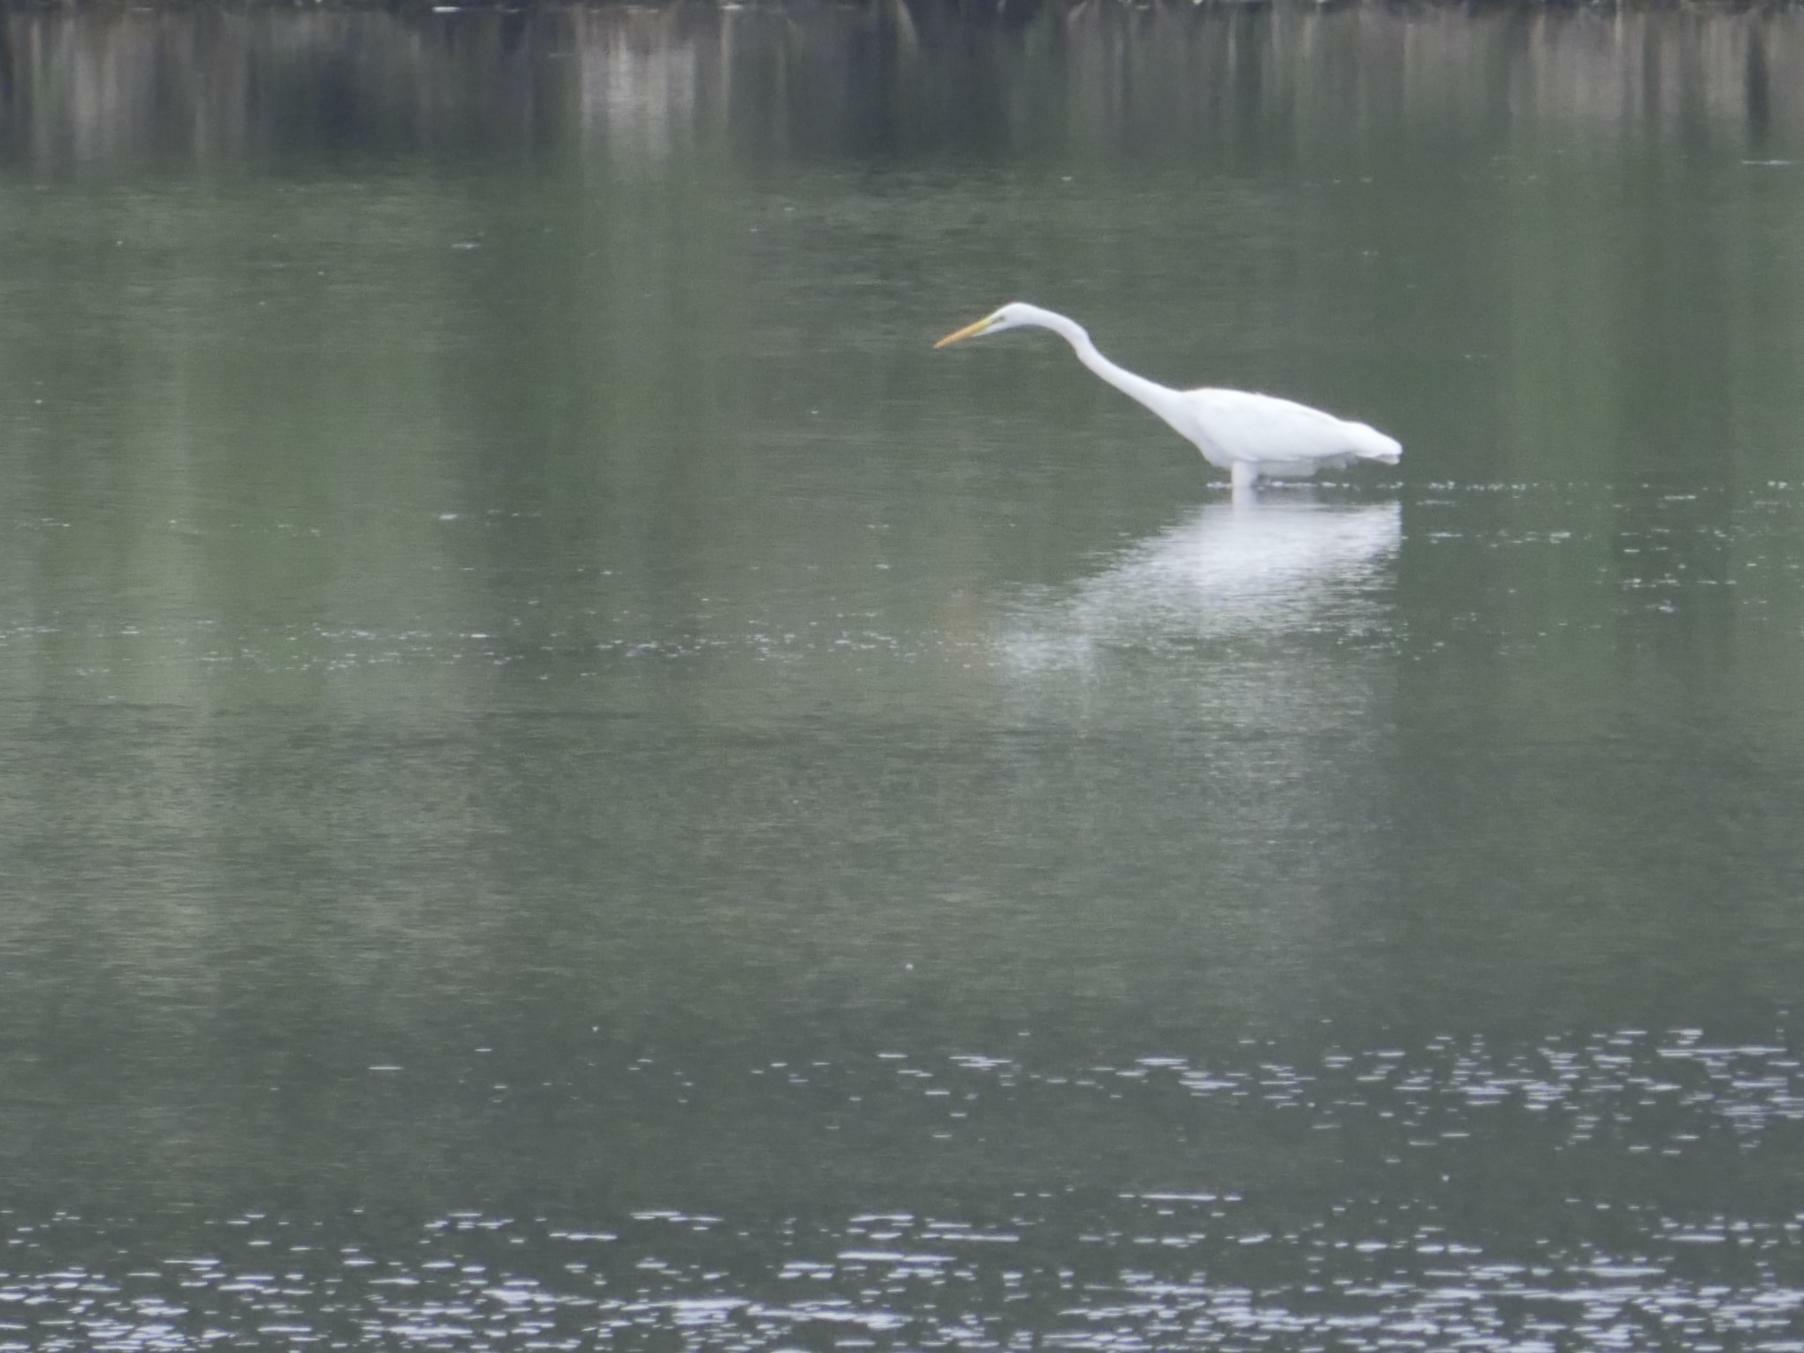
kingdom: Animalia
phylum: Chordata
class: Aves
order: Pelecaniformes
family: Ardeidae
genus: Ardea
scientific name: Ardea alba
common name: Great egret
